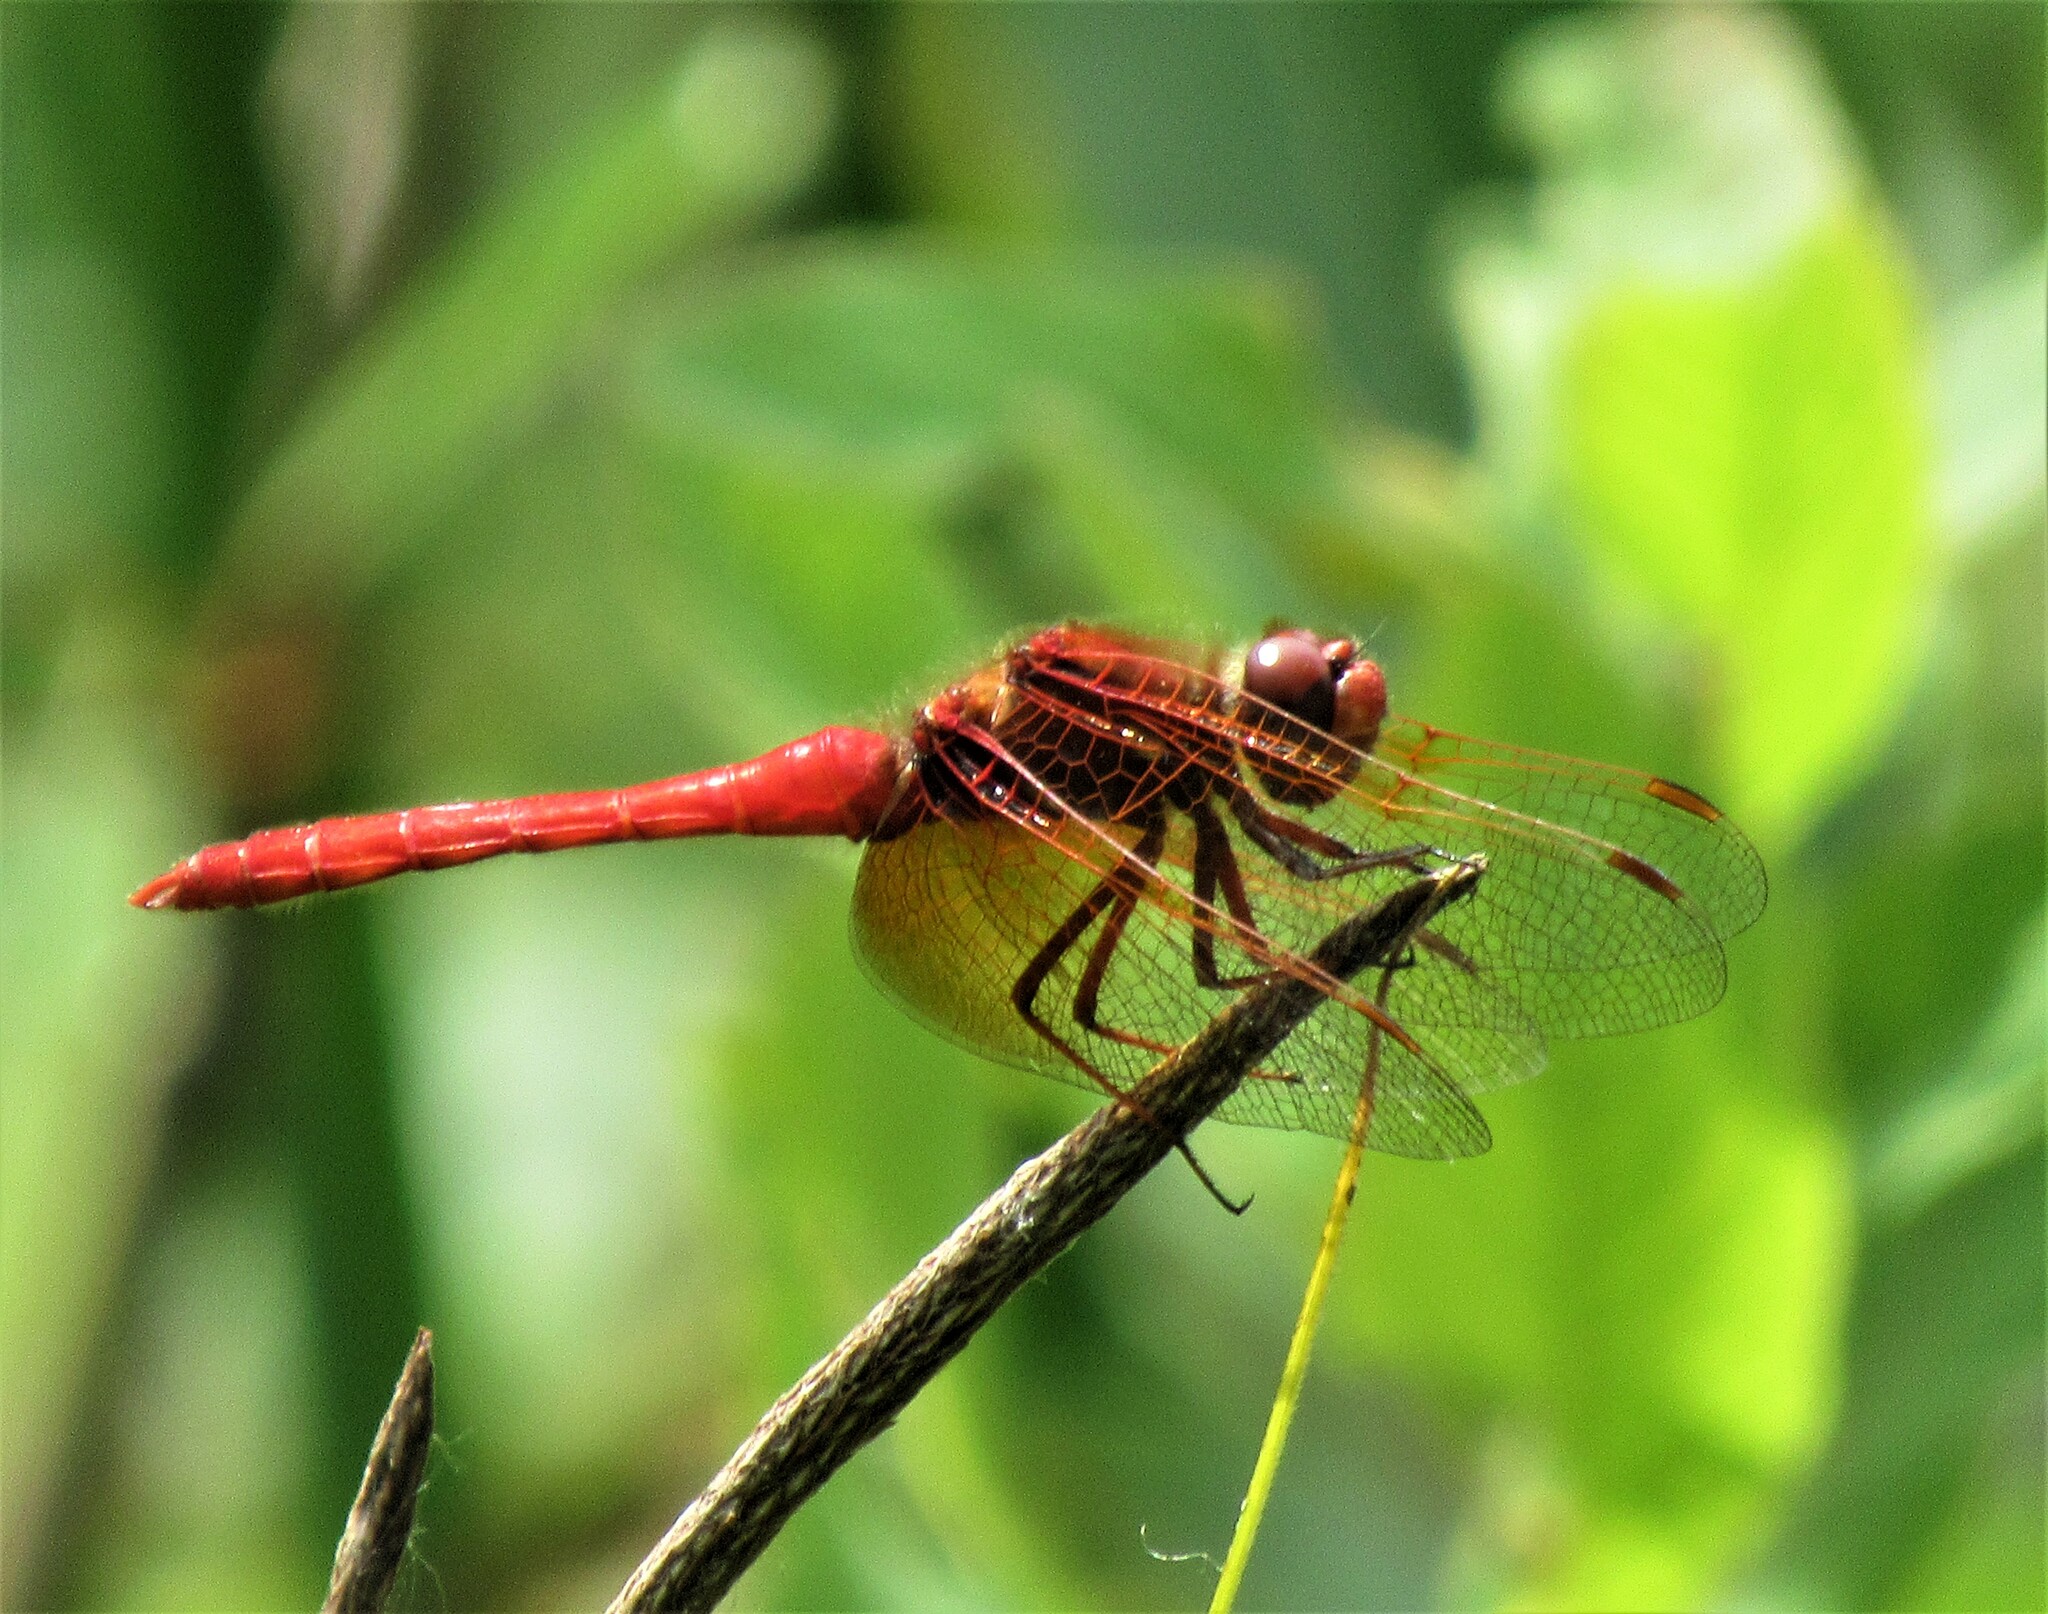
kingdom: Animalia
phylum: Arthropoda
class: Insecta
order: Odonata
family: Libellulidae
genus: Sympetrum
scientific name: Sympetrum illotum
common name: Cardinal meadowhawk
